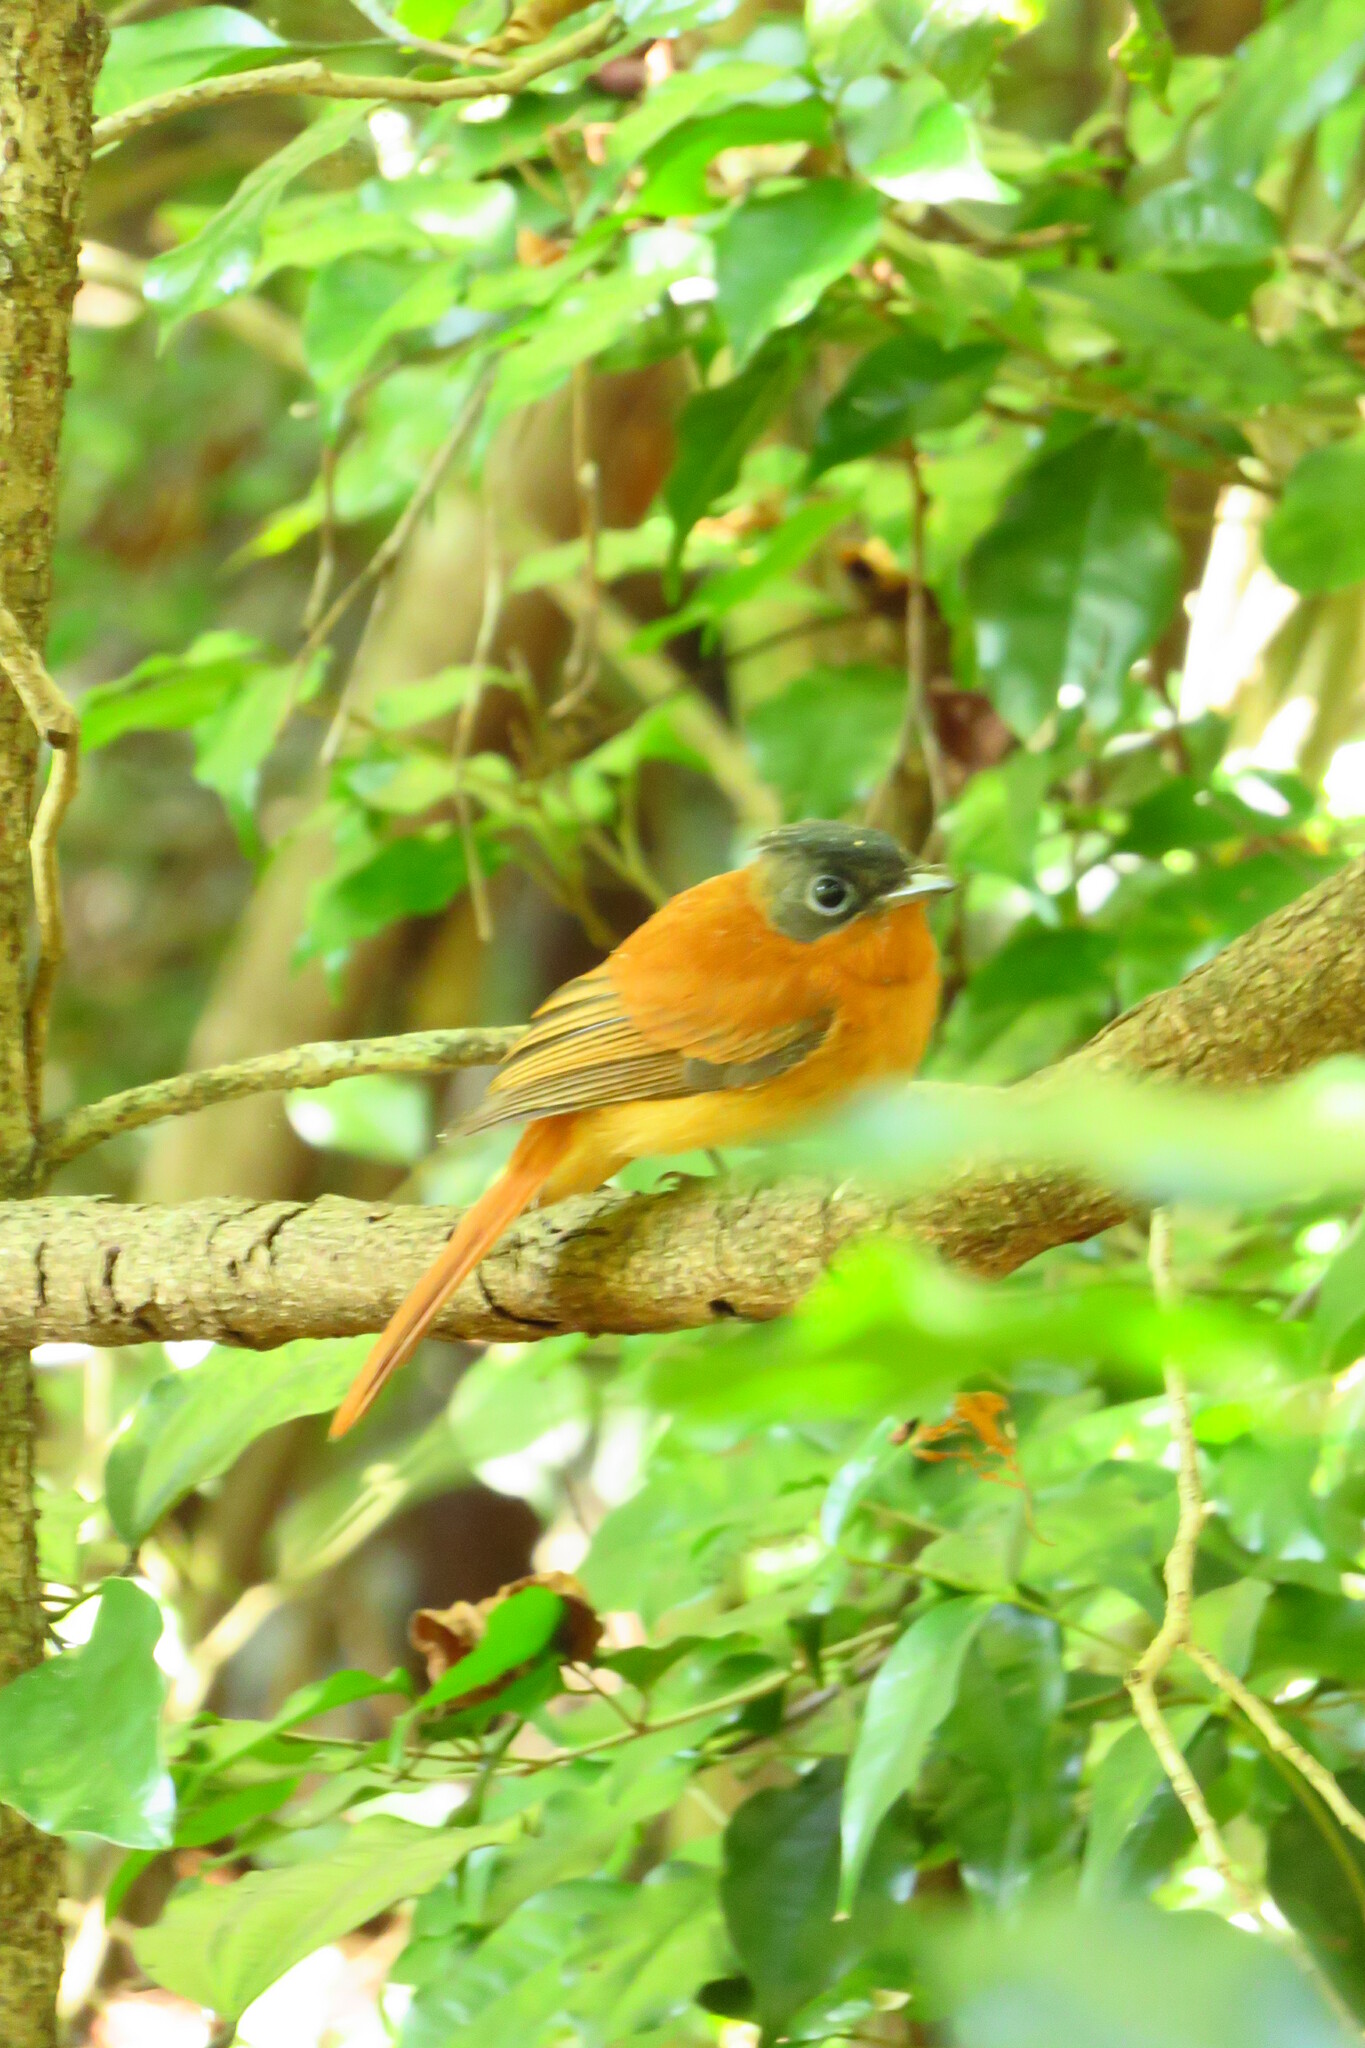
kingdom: Animalia
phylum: Chordata
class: Aves
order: Passeriformes
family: Monarchidae
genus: Terpsiphone
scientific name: Terpsiphone mutata
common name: Malagasy paradise flycatcher
